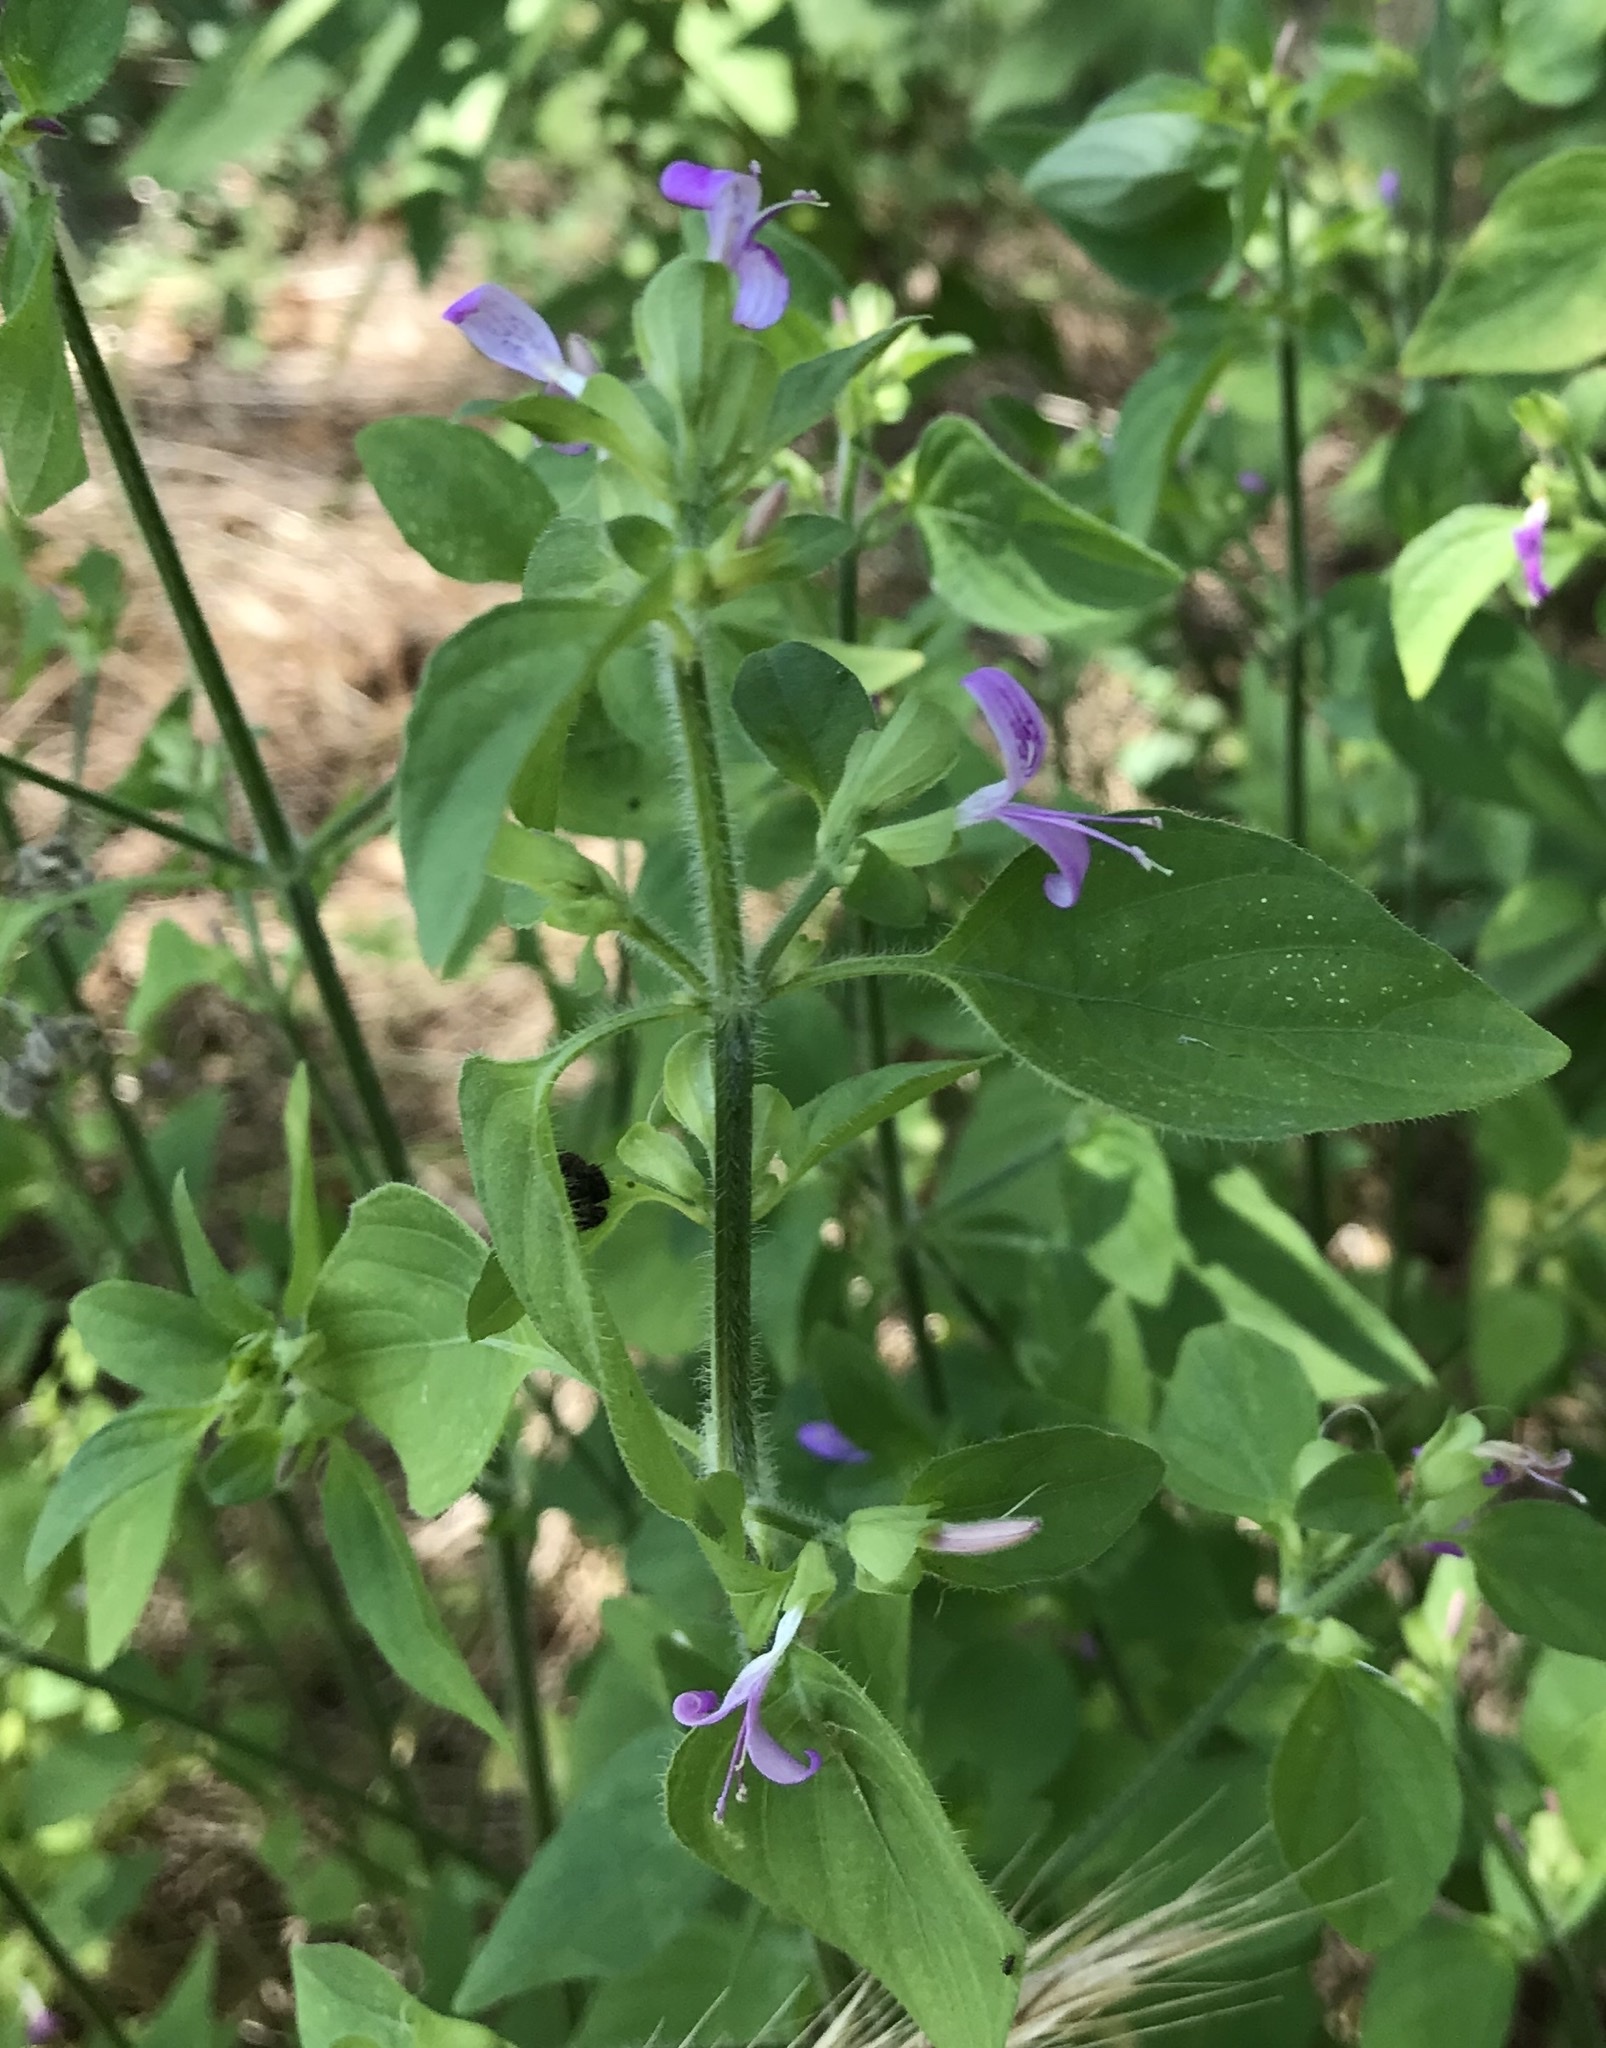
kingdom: Plantae
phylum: Tracheophyta
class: Magnoliopsida
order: Lamiales
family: Acanthaceae
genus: Dicliptera
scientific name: Dicliptera brachiata
